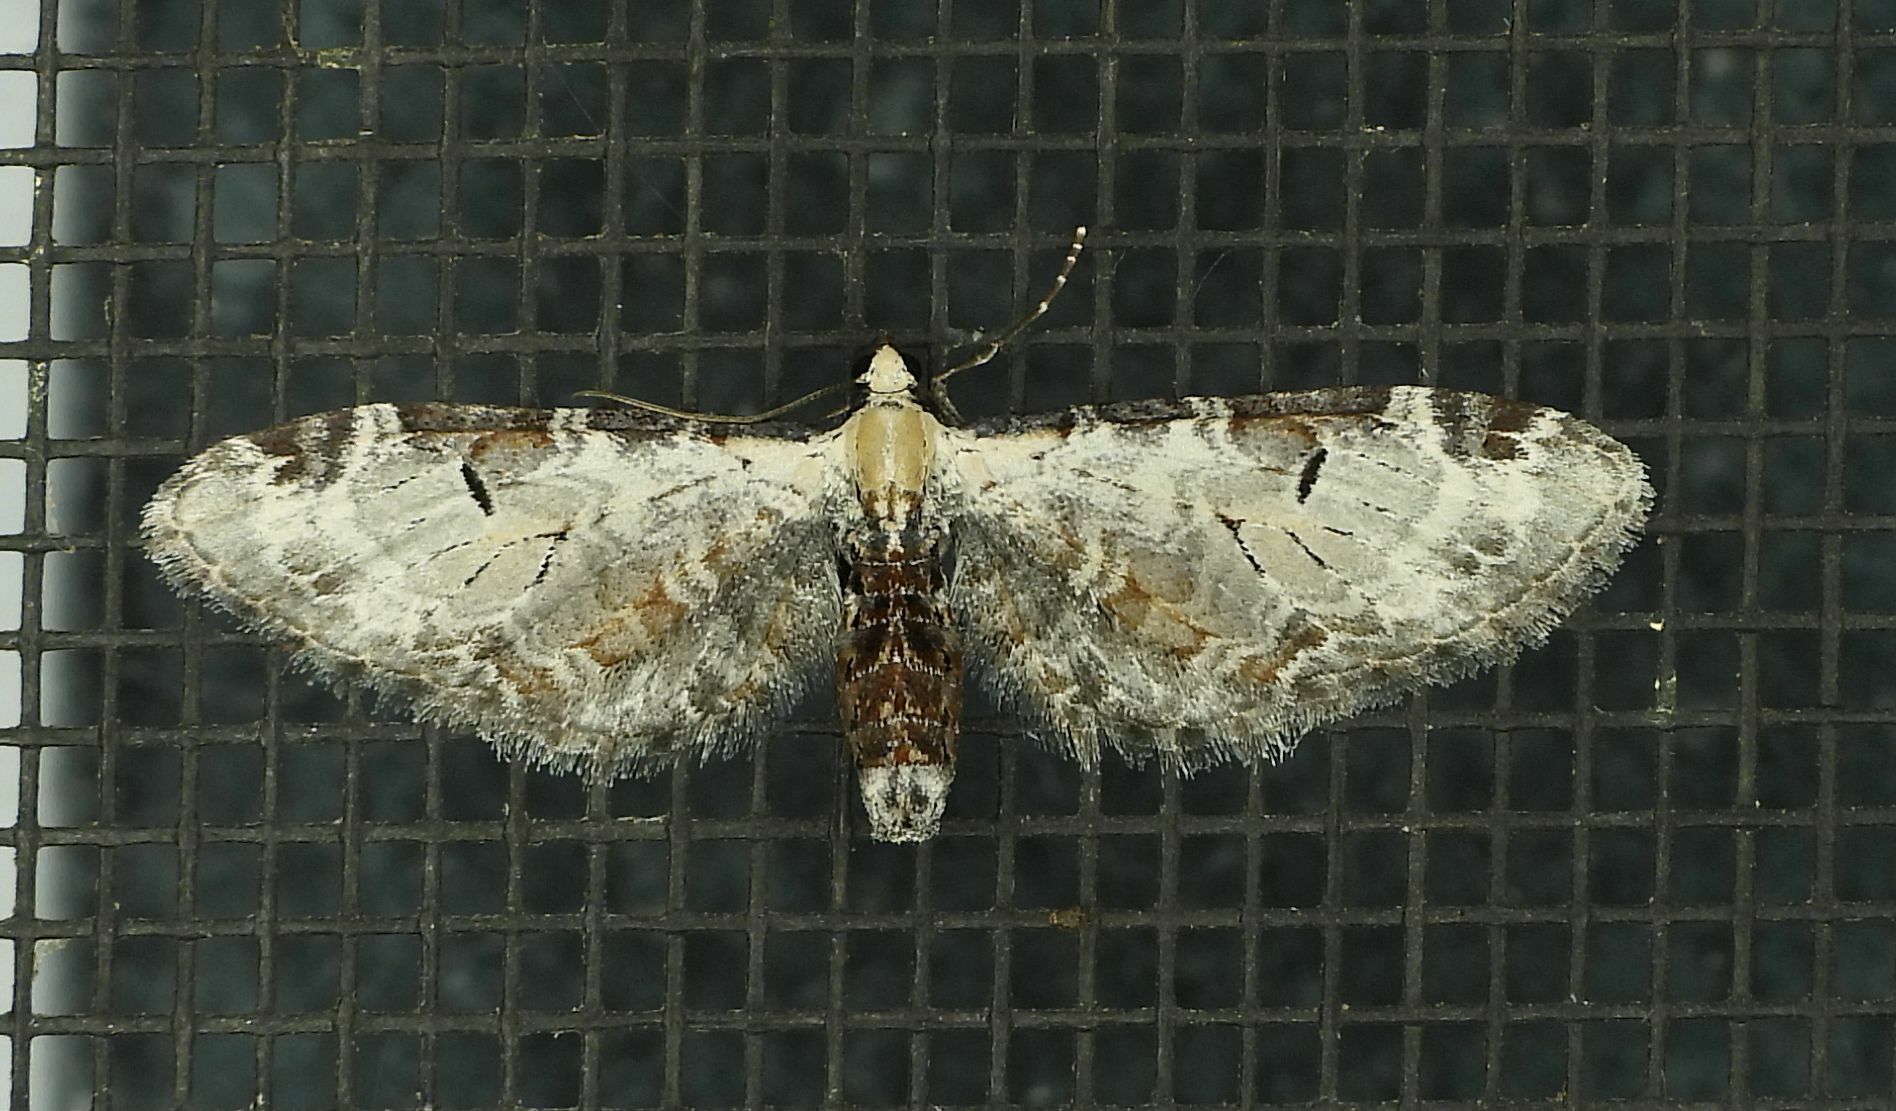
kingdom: Animalia
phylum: Arthropoda
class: Insecta
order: Lepidoptera
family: Geometridae
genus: Eupithecia
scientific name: Eupithecia ravocostaliata
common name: Great varigated pug
